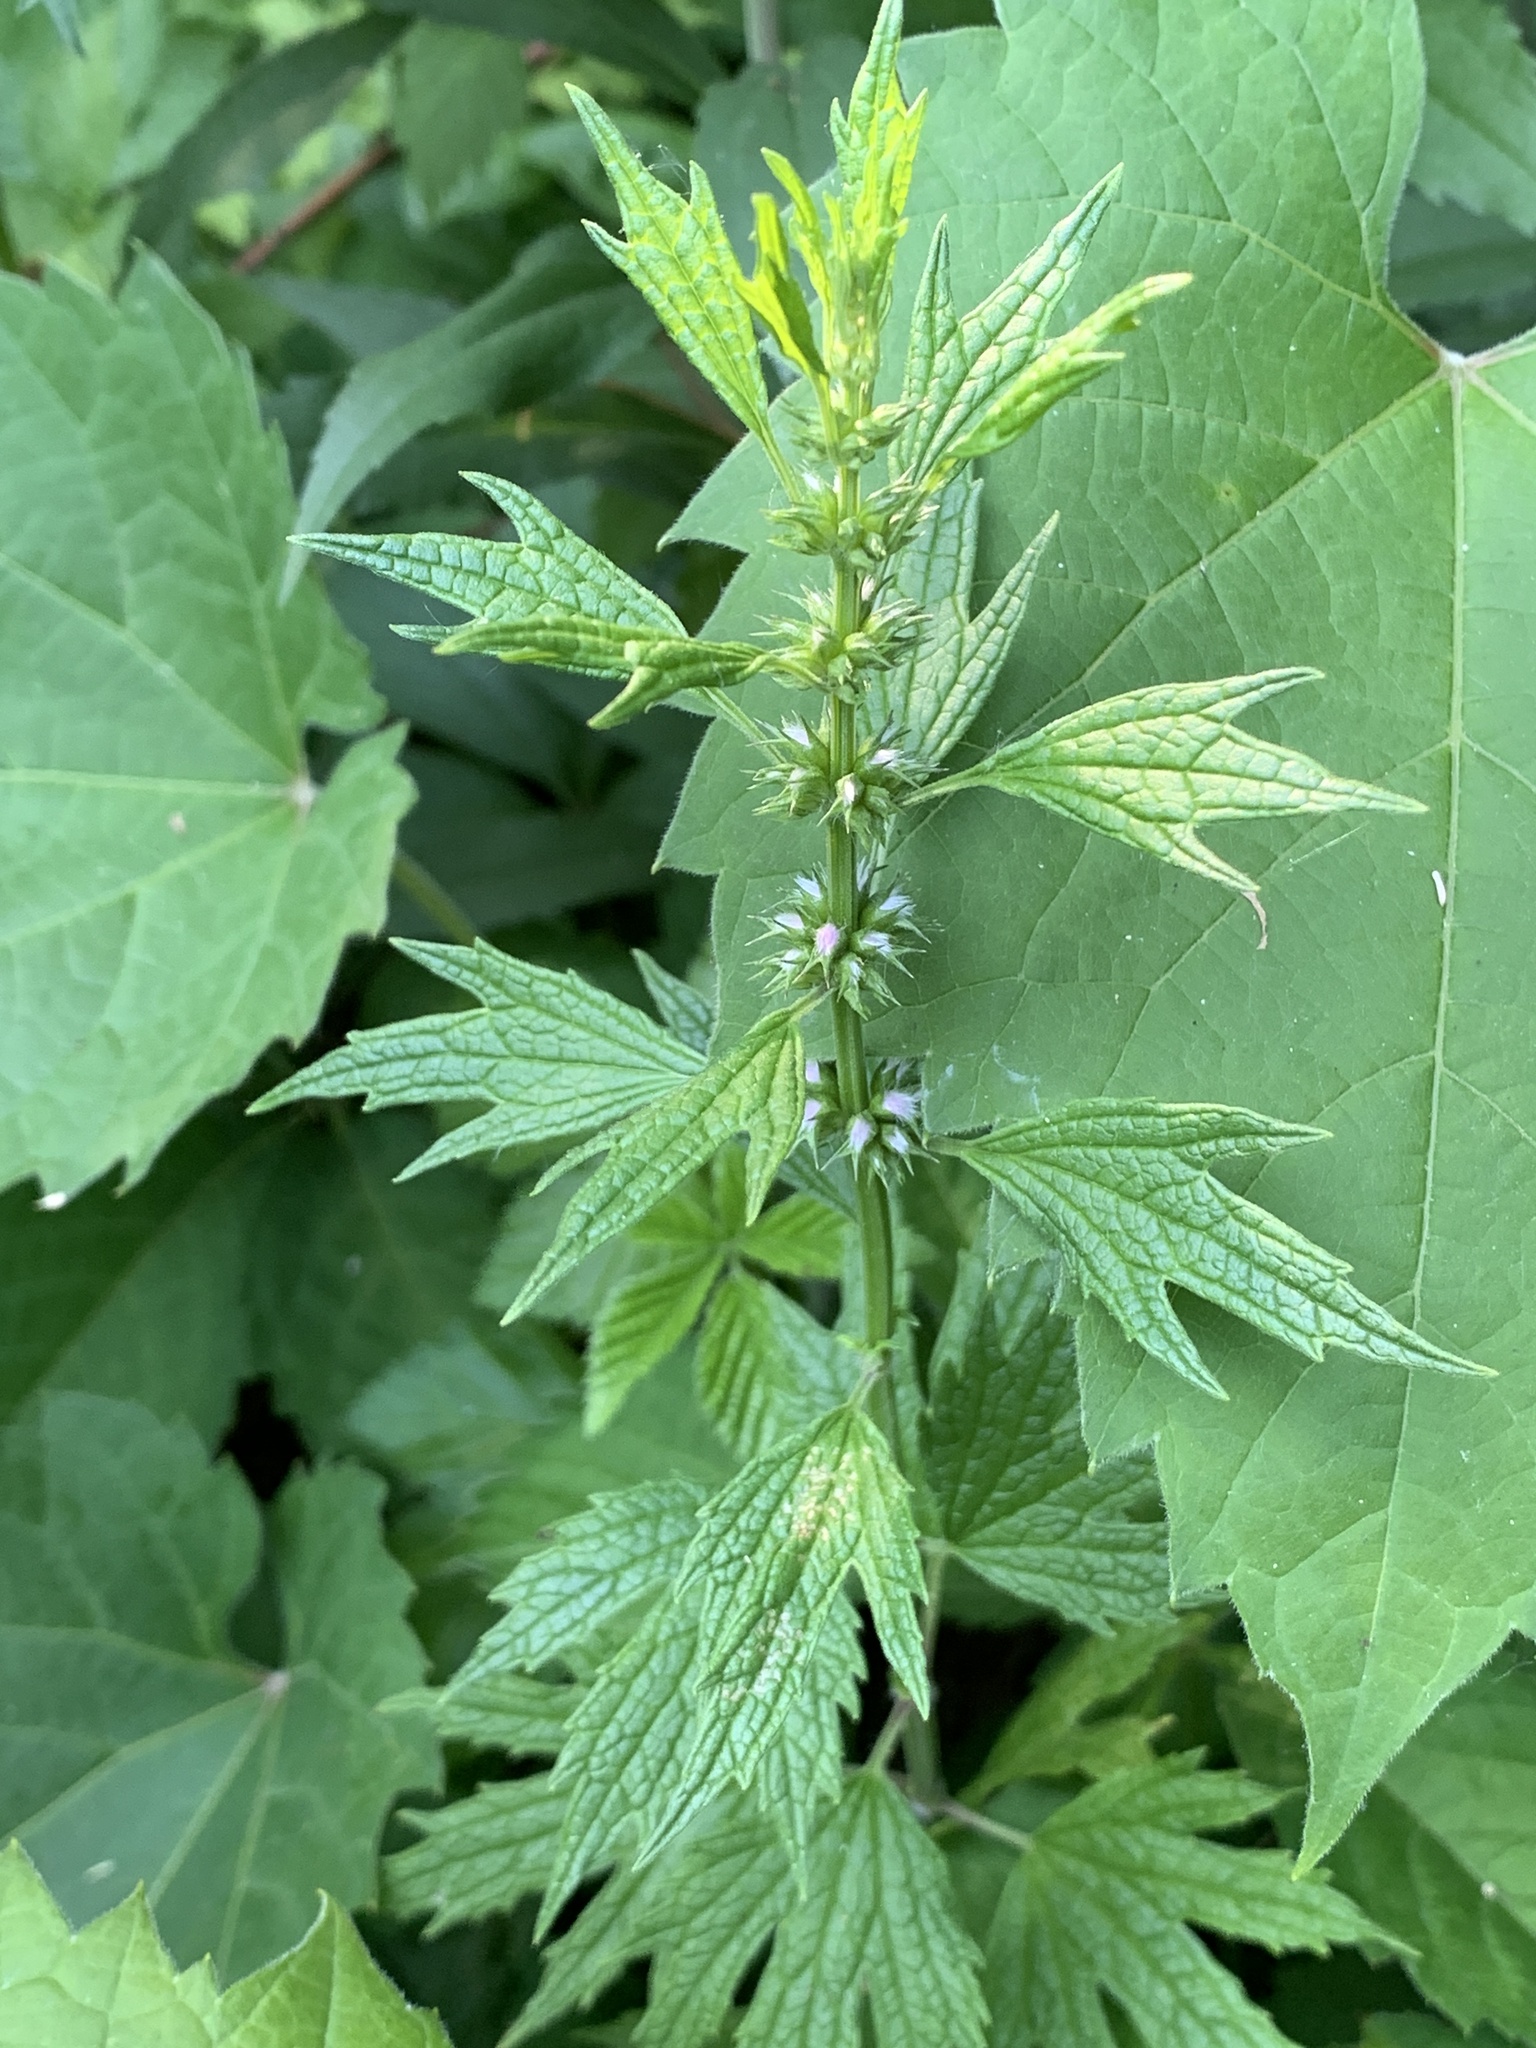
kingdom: Plantae
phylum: Tracheophyta
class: Magnoliopsida
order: Lamiales
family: Lamiaceae
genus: Leonurus
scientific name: Leonurus cardiaca
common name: Motherwort
